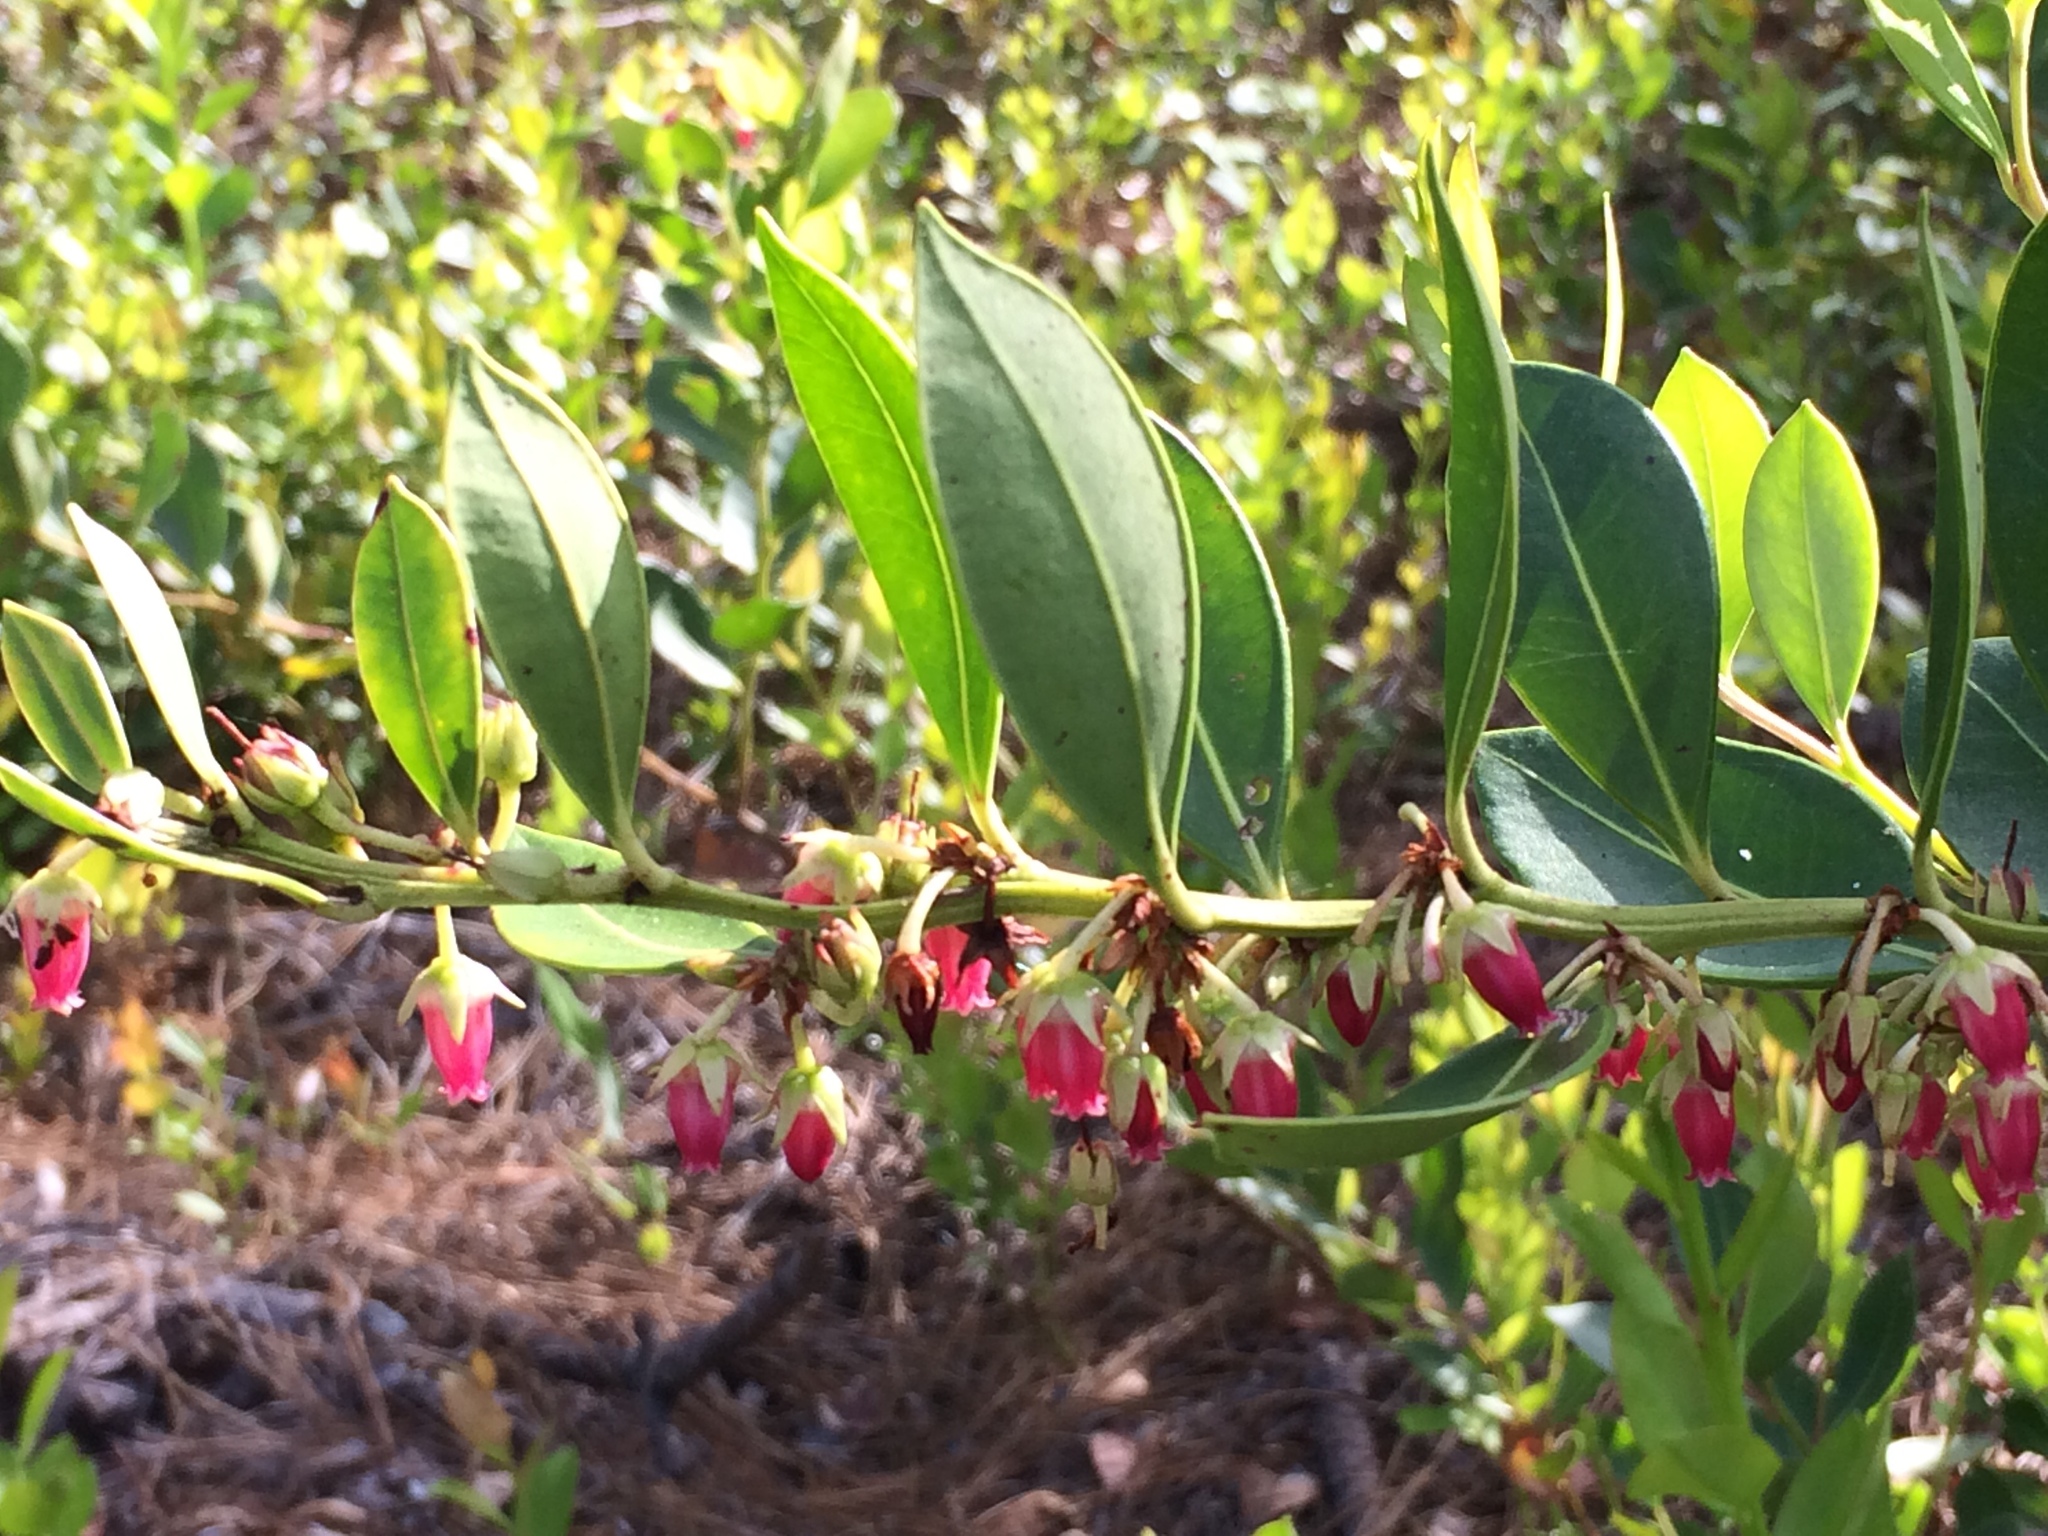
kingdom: Plantae
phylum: Tracheophyta
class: Magnoliopsida
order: Ericales
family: Ericaceae
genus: Lyonia
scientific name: Lyonia lucida
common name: Fetterbush
